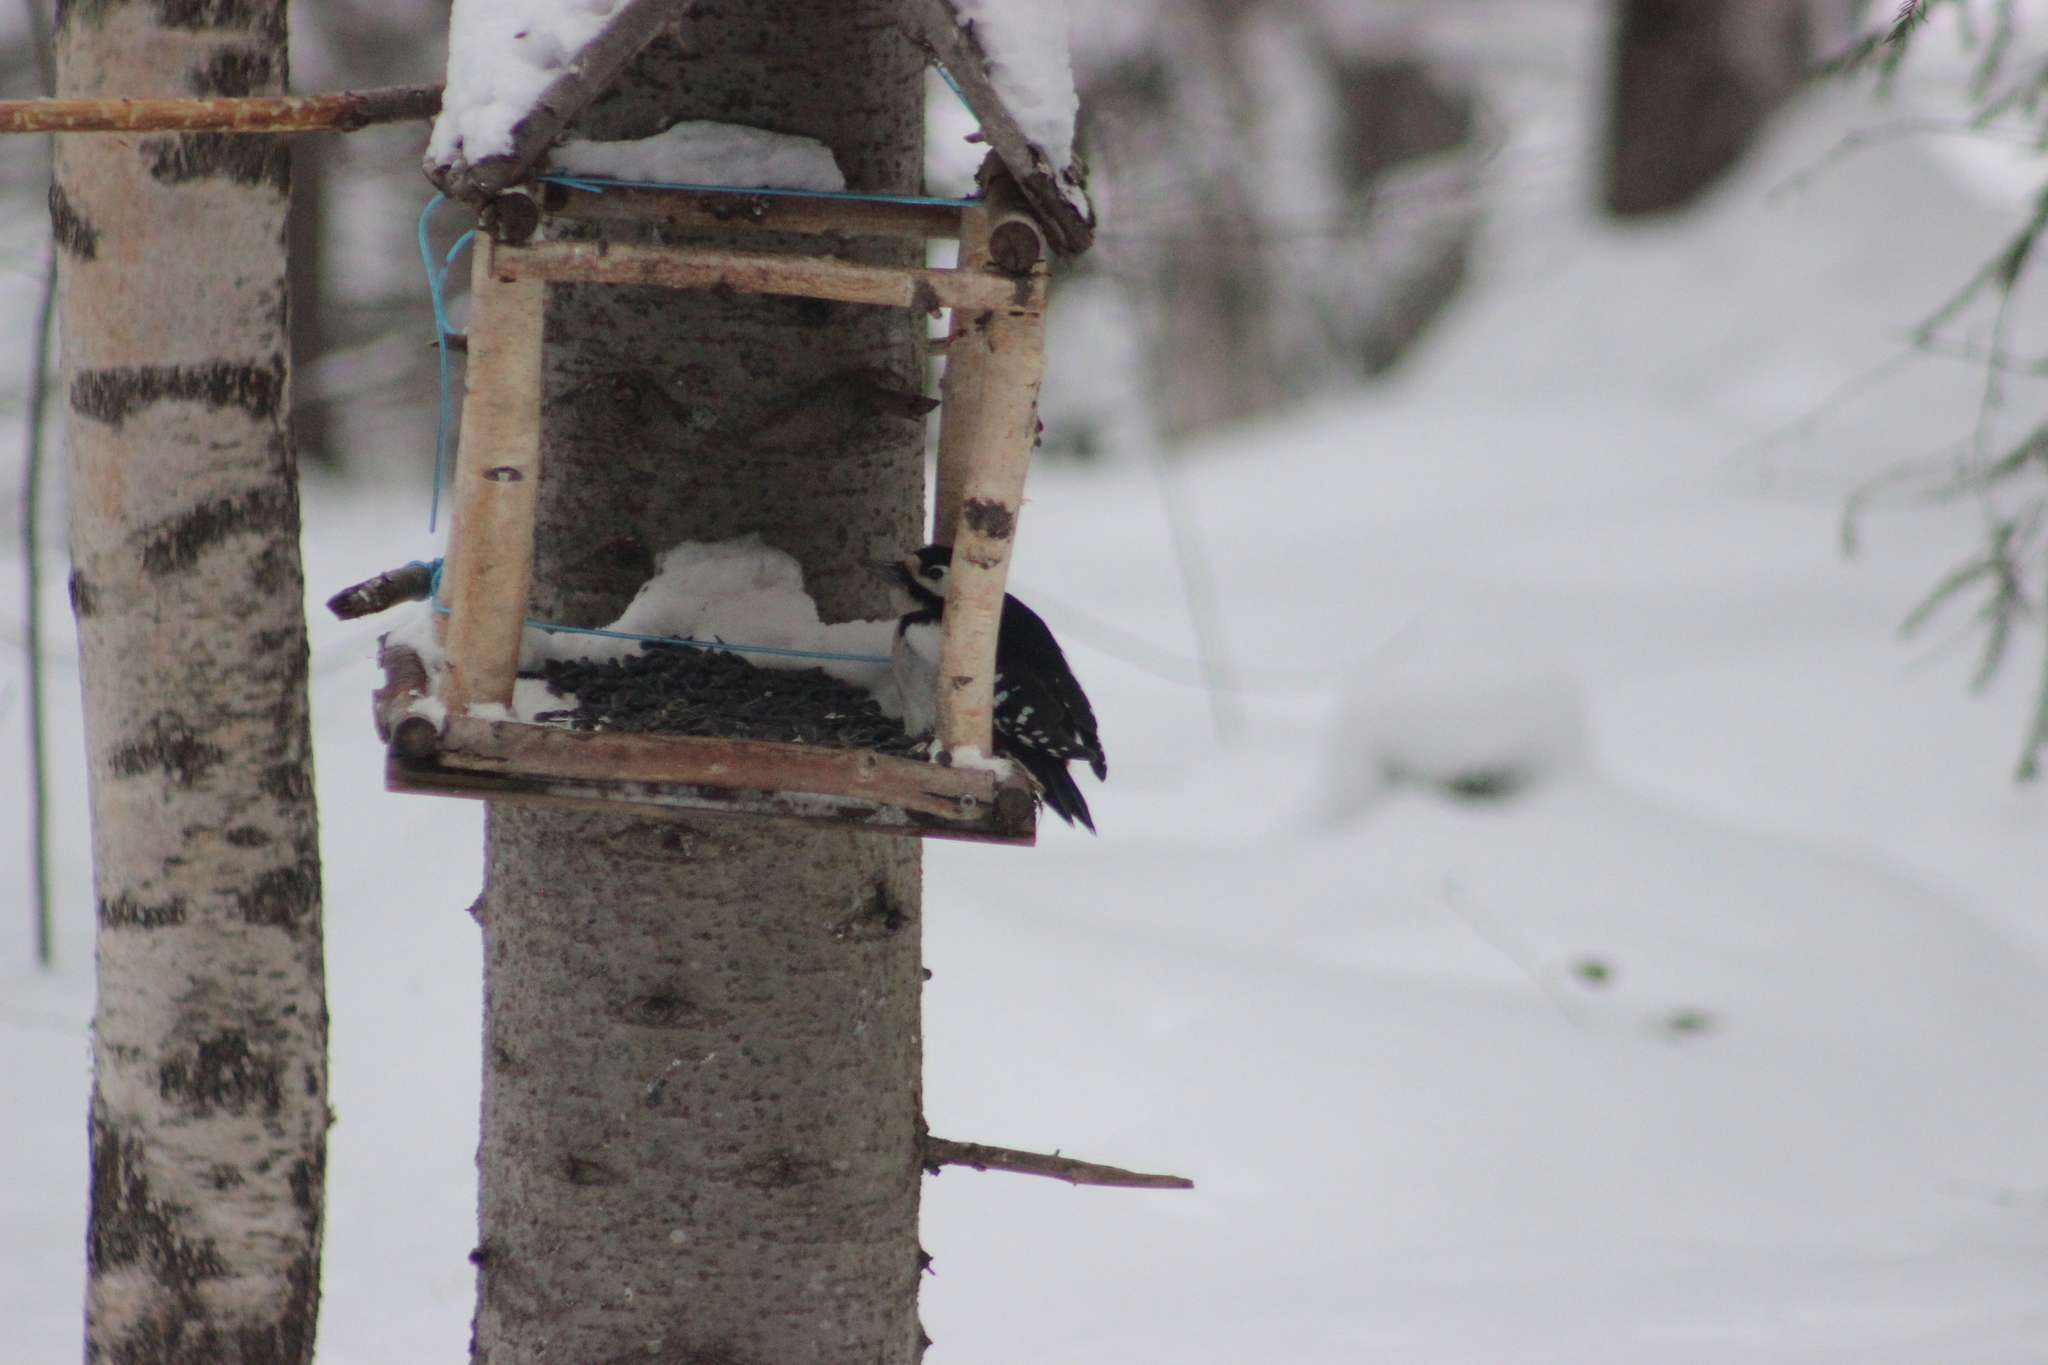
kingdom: Animalia
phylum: Chordata
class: Aves
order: Piciformes
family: Picidae
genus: Dendrocopos
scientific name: Dendrocopos major
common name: Great spotted woodpecker
